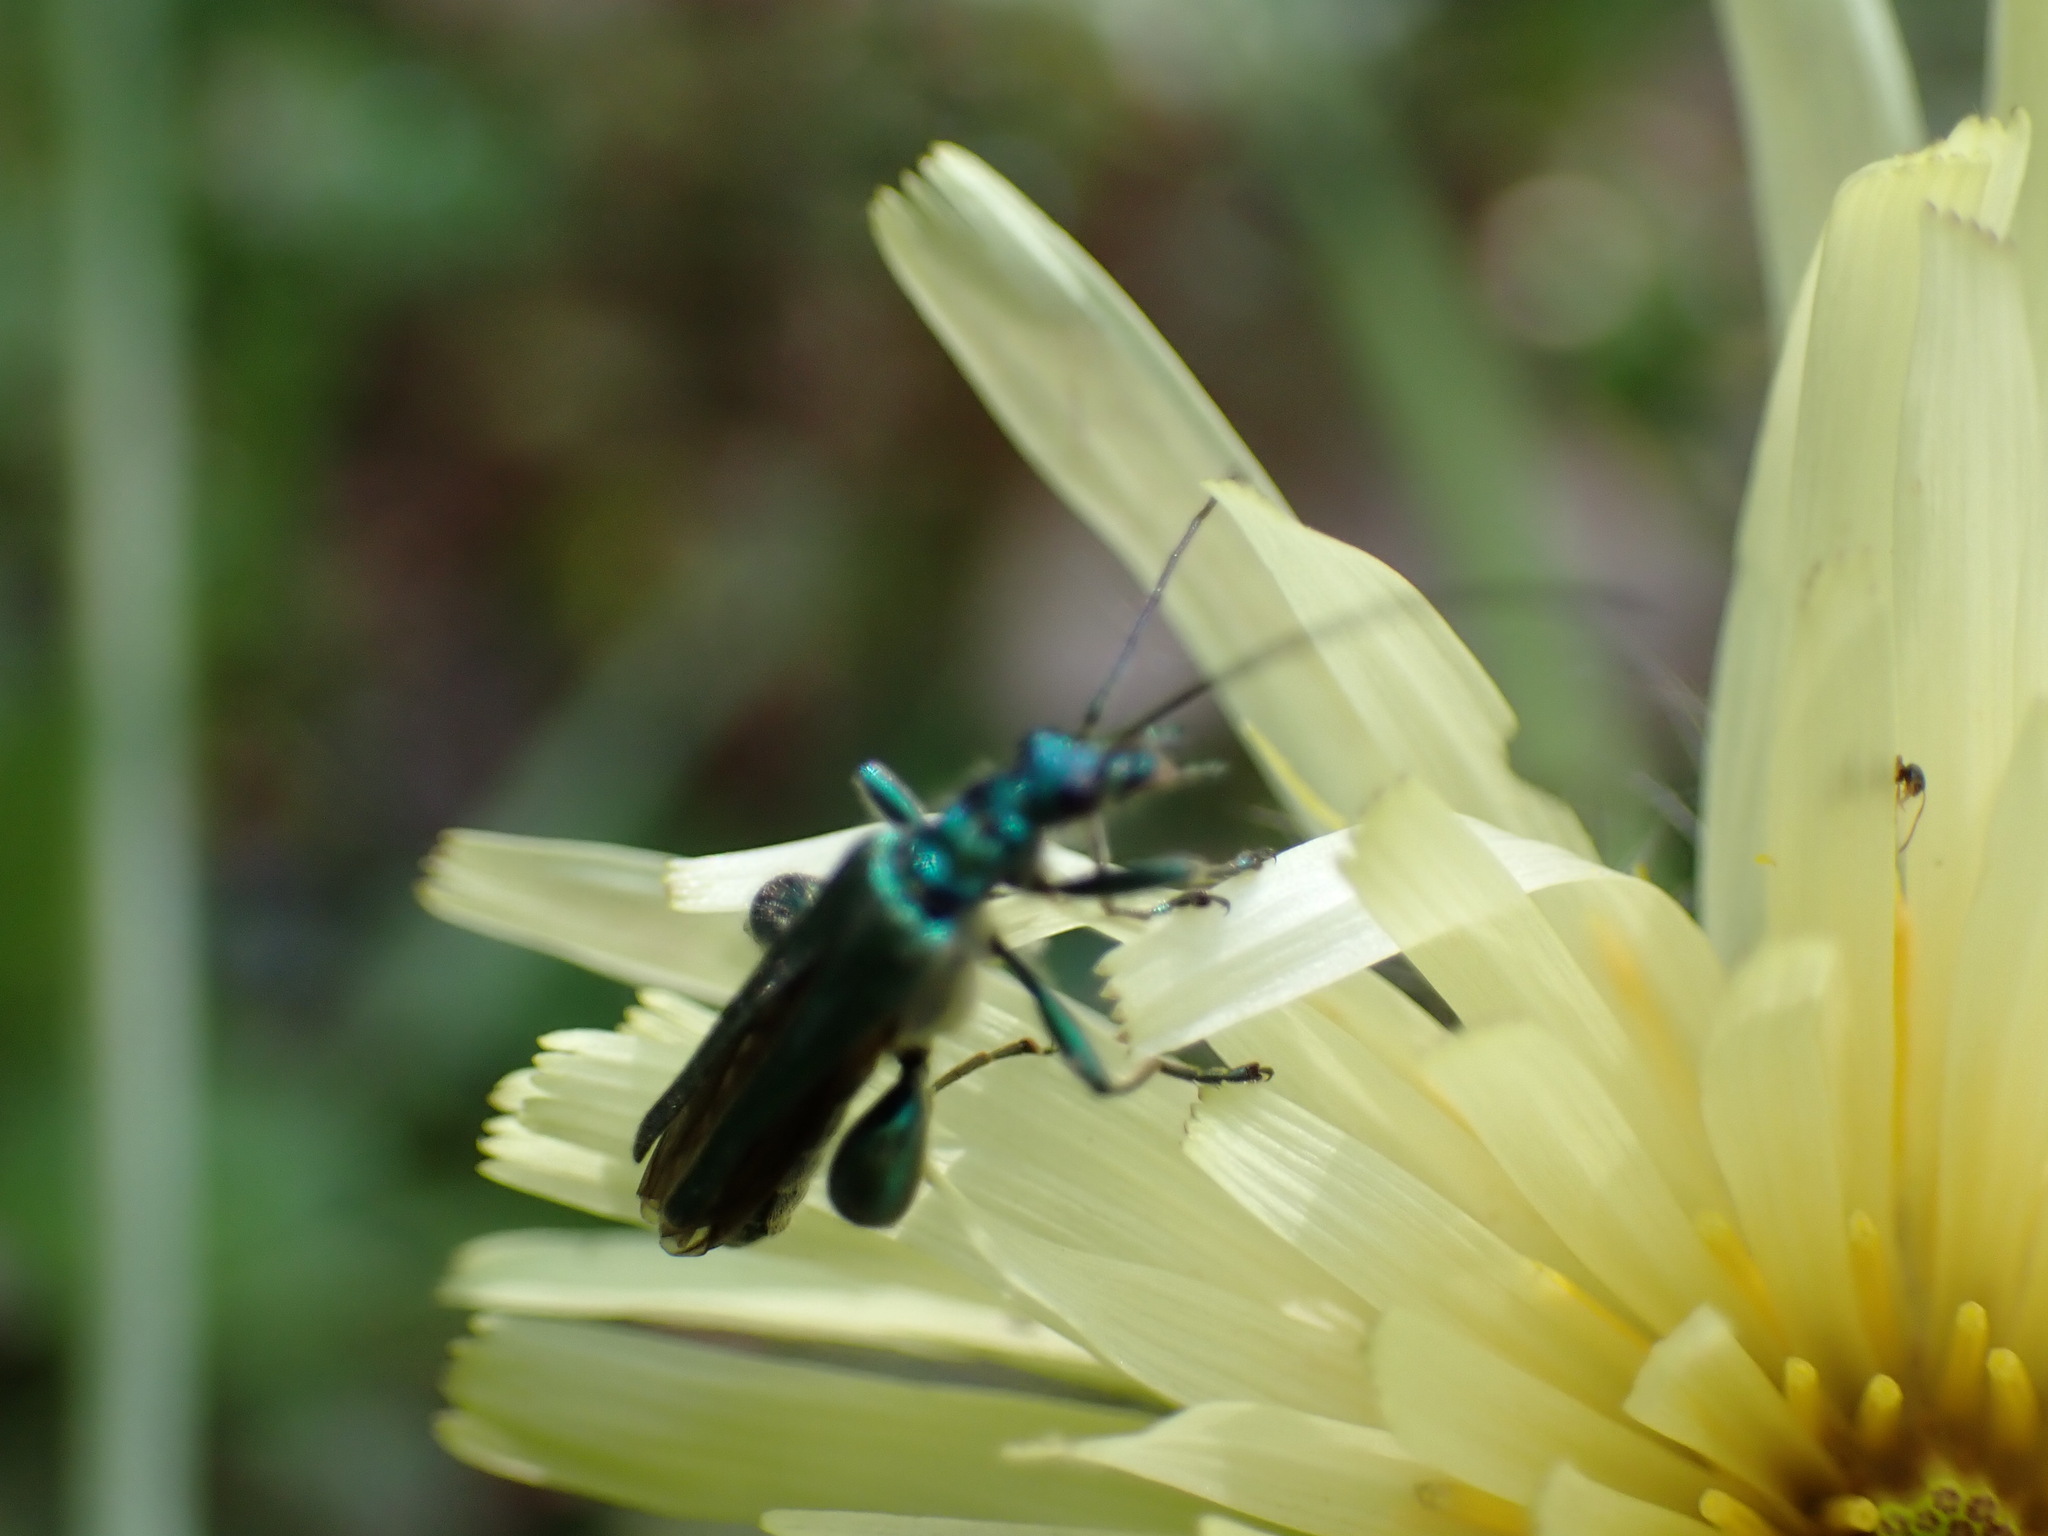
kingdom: Animalia
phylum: Arthropoda
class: Insecta
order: Coleoptera
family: Oedemeridae
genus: Oedemera
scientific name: Oedemera nobilis
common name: Swollen-thighed beetle
